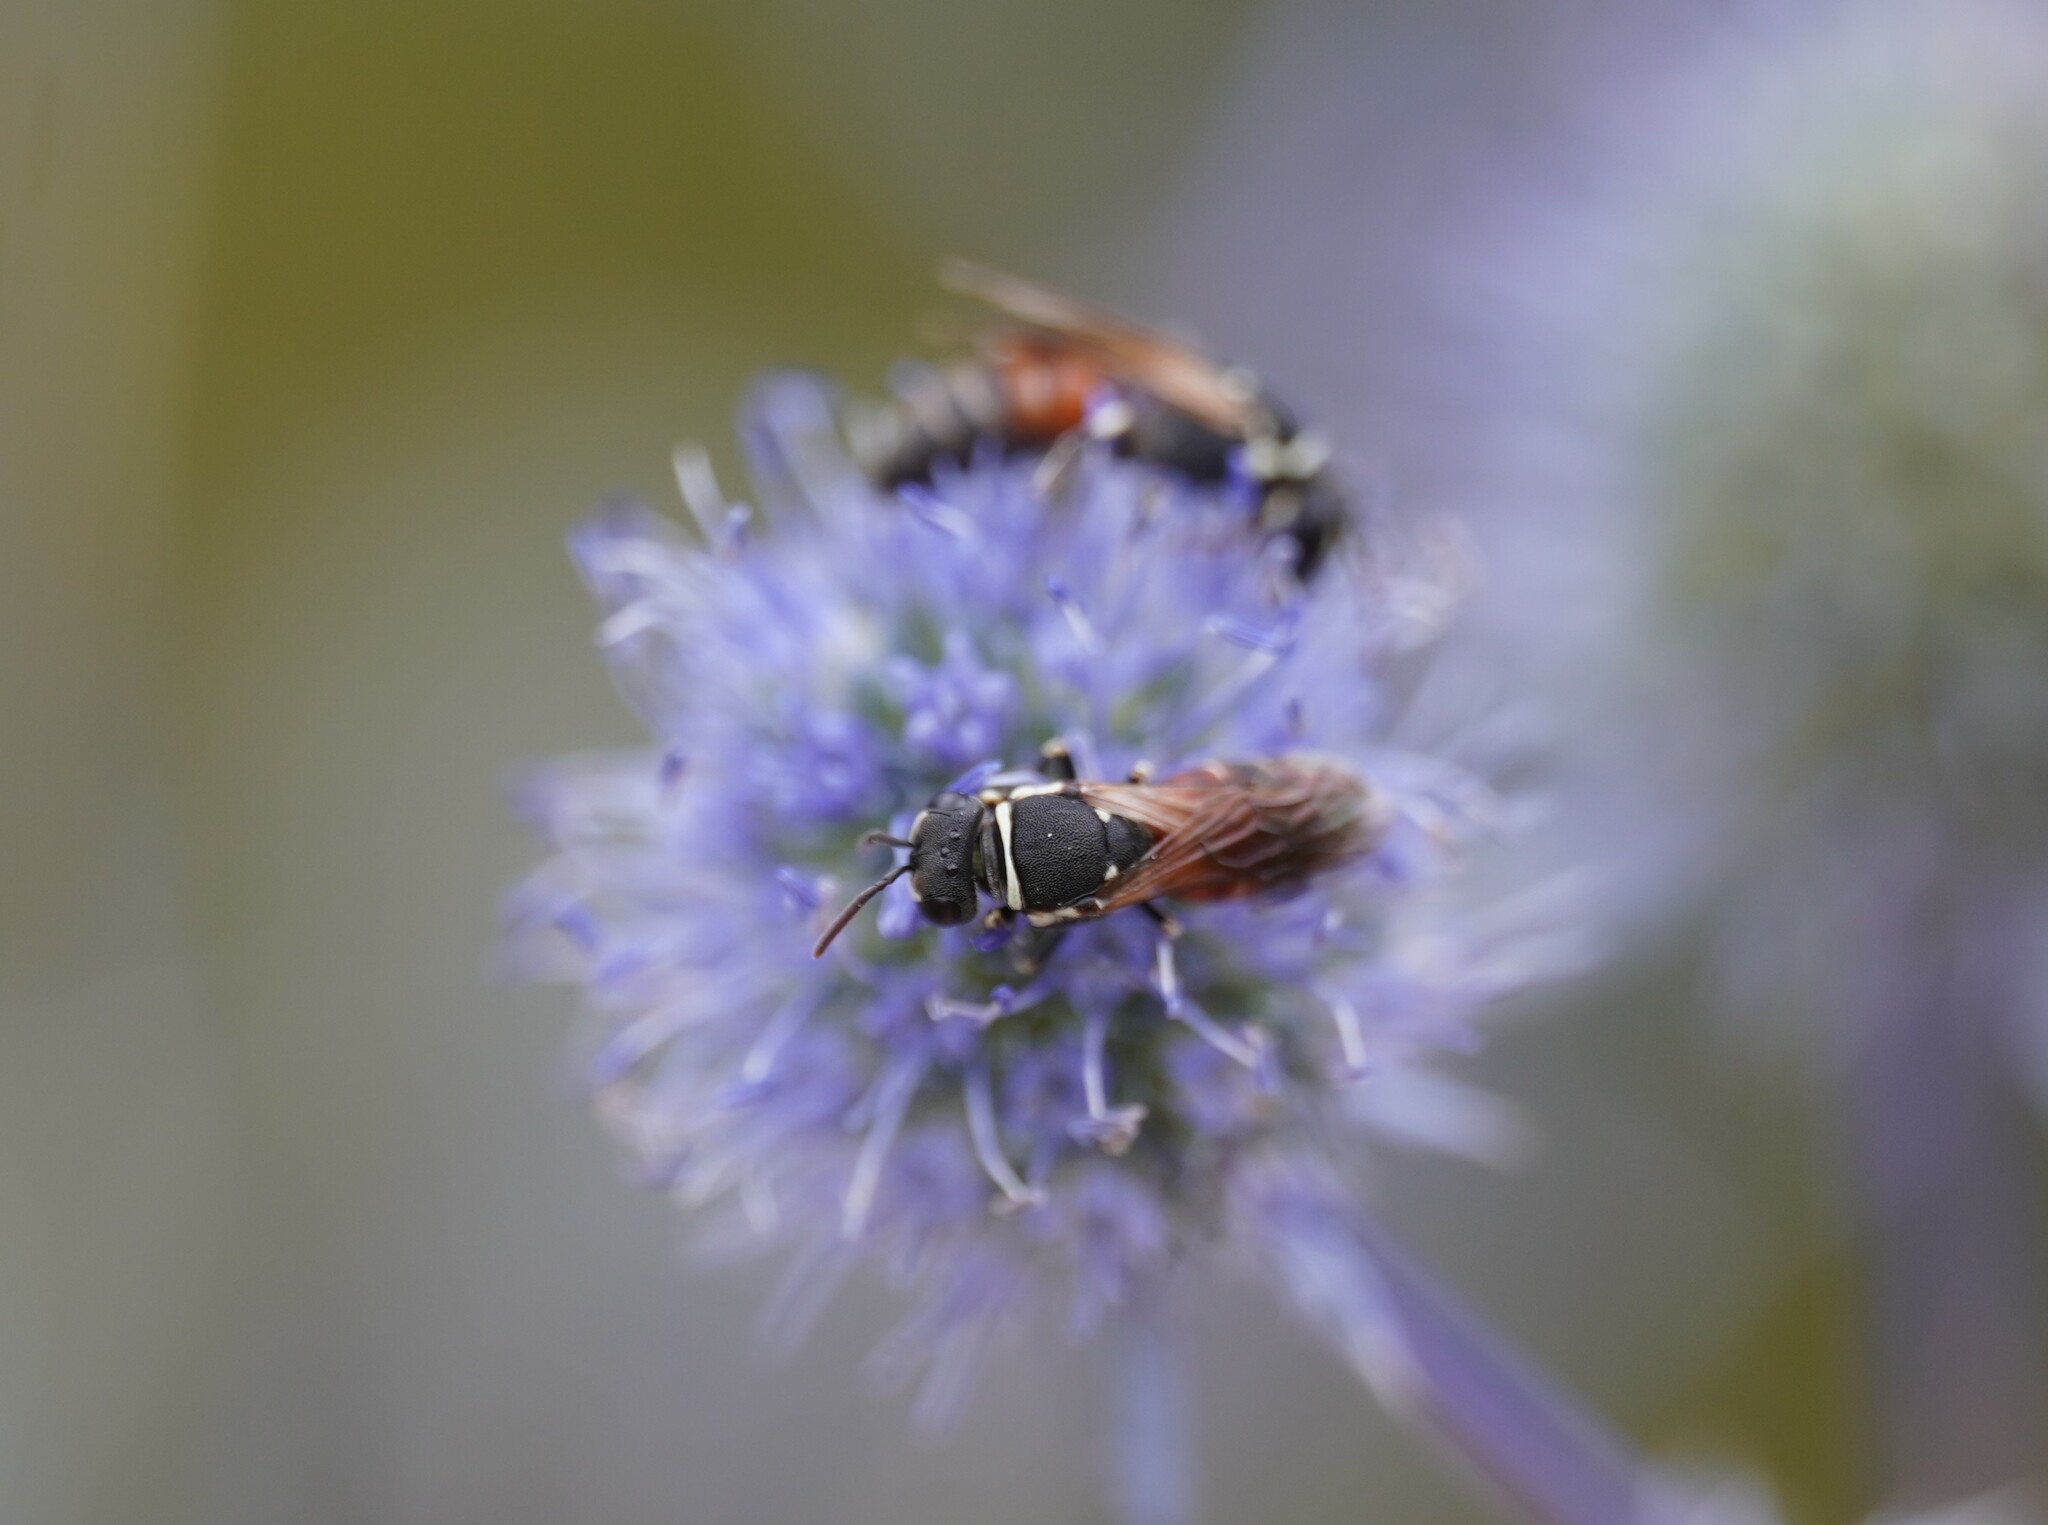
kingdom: Animalia
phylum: Arthropoda
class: Insecta
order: Hymenoptera
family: Colletidae
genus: Hylaeus
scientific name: Hylaeus variegatus
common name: Masked bee
